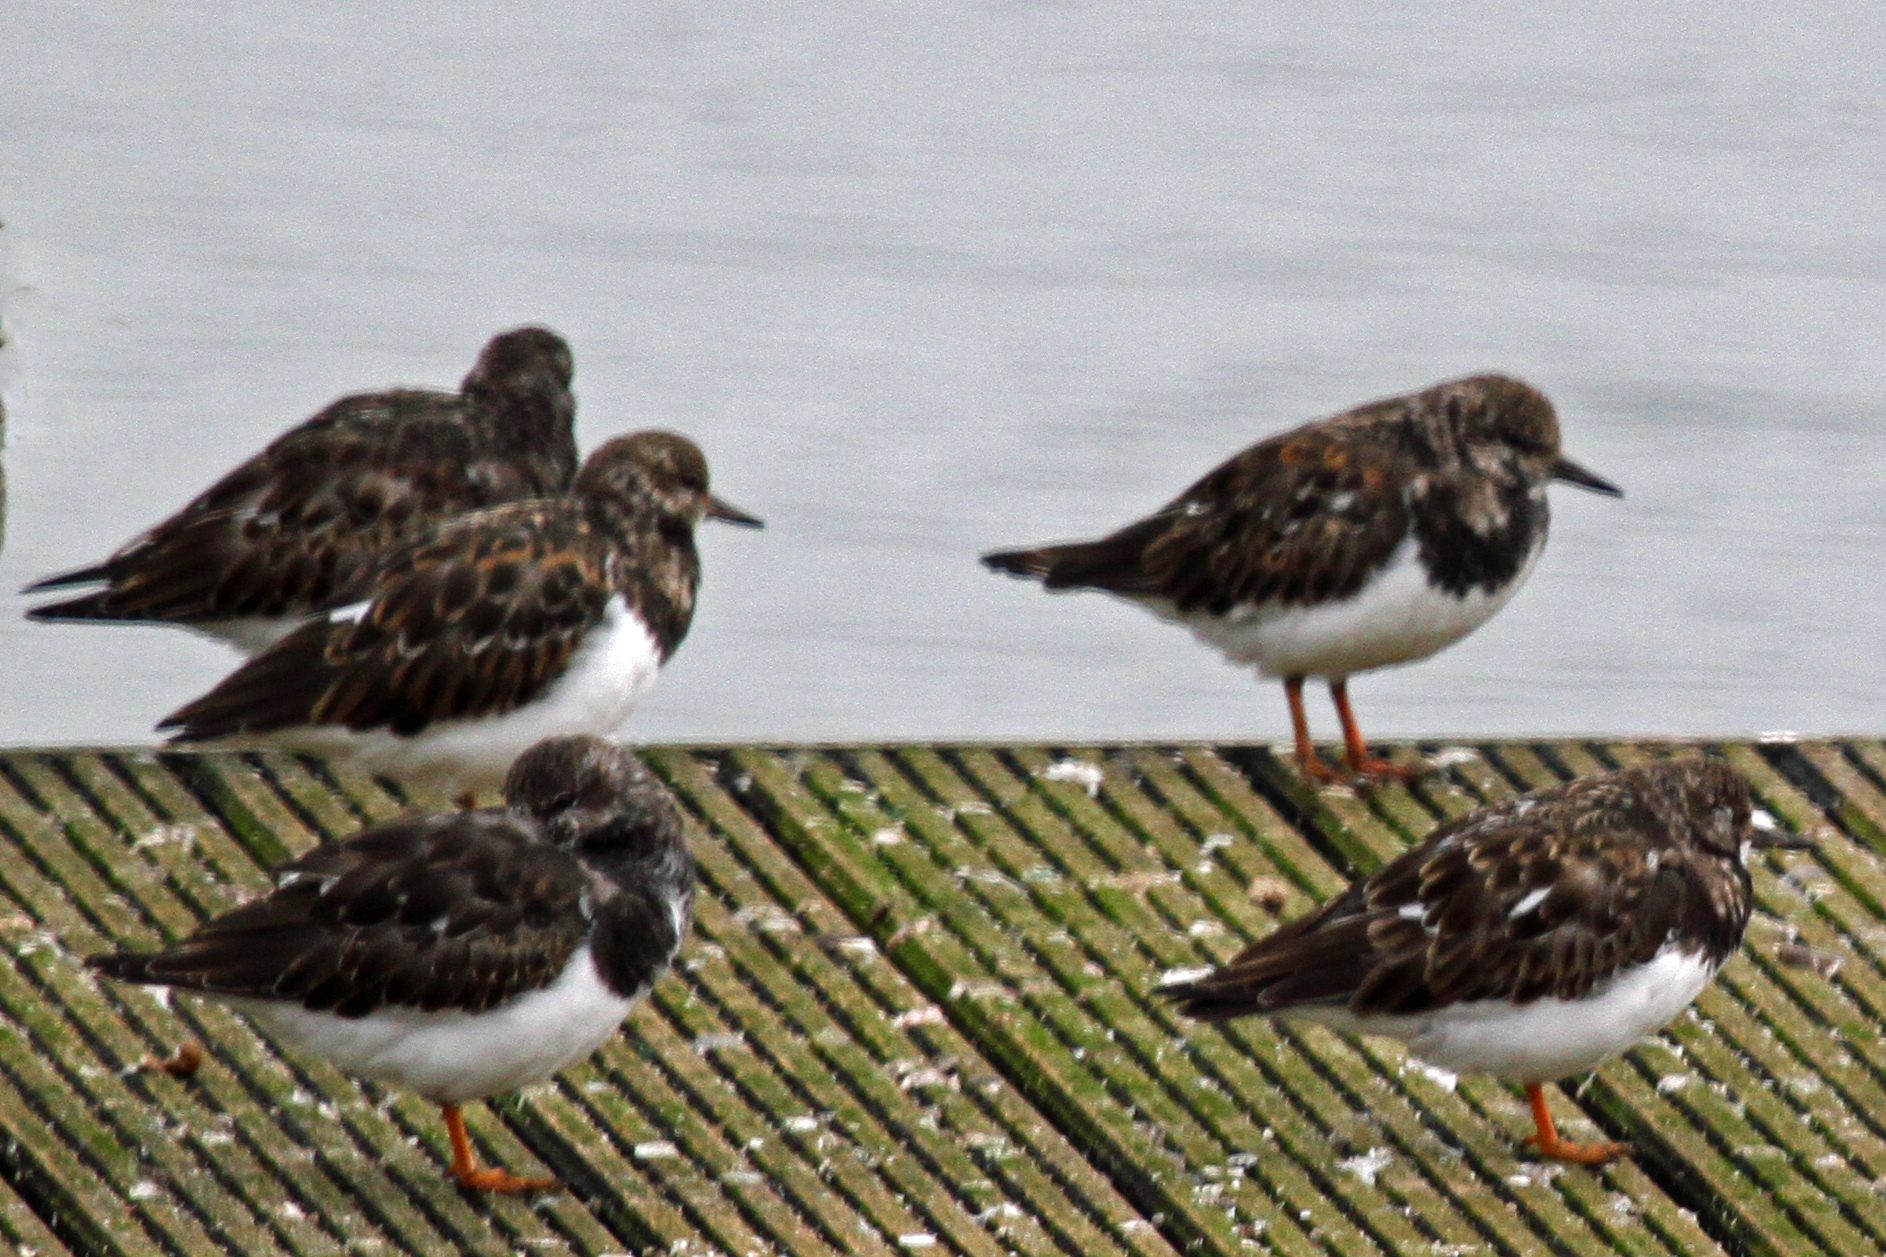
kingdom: Animalia
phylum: Chordata
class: Aves
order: Charadriiformes
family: Scolopacidae
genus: Arenaria
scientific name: Arenaria interpres
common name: Ruddy turnstone
